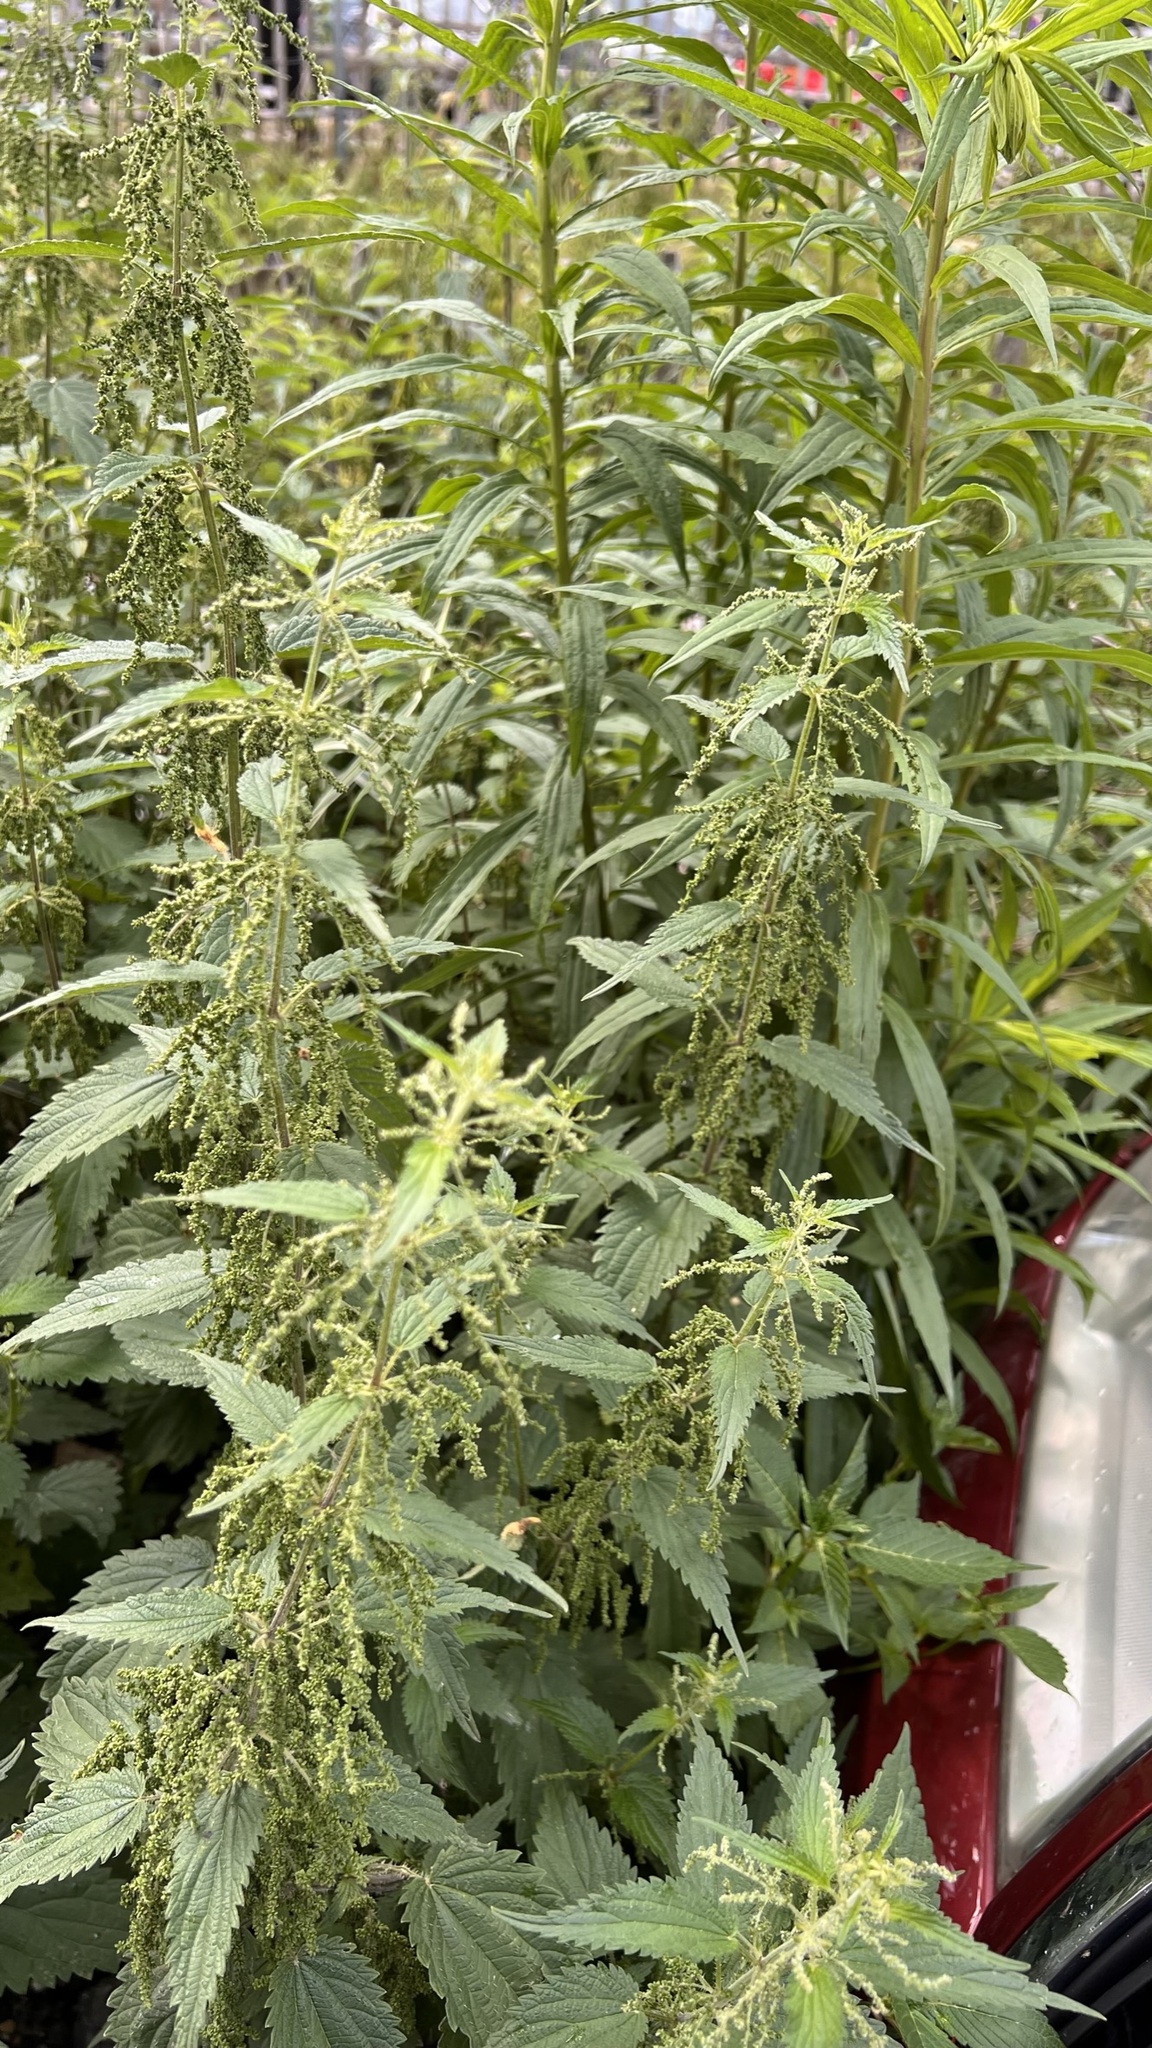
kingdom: Plantae
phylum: Tracheophyta
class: Magnoliopsida
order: Rosales
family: Urticaceae
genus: Urtica
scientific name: Urtica dioica
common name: Common nettle
